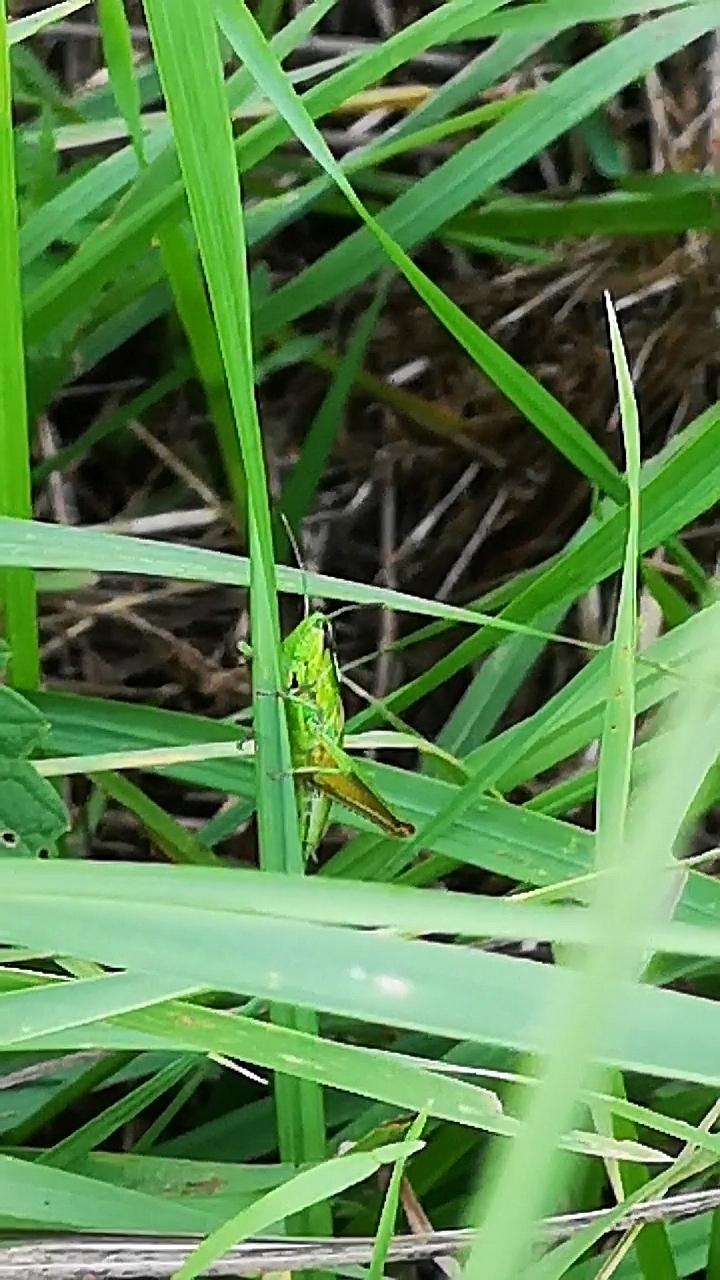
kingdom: Animalia
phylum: Arthropoda
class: Insecta
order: Orthoptera
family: Acrididae
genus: Euthystira
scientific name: Euthystira brachyptera
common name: Small gold grasshopper
